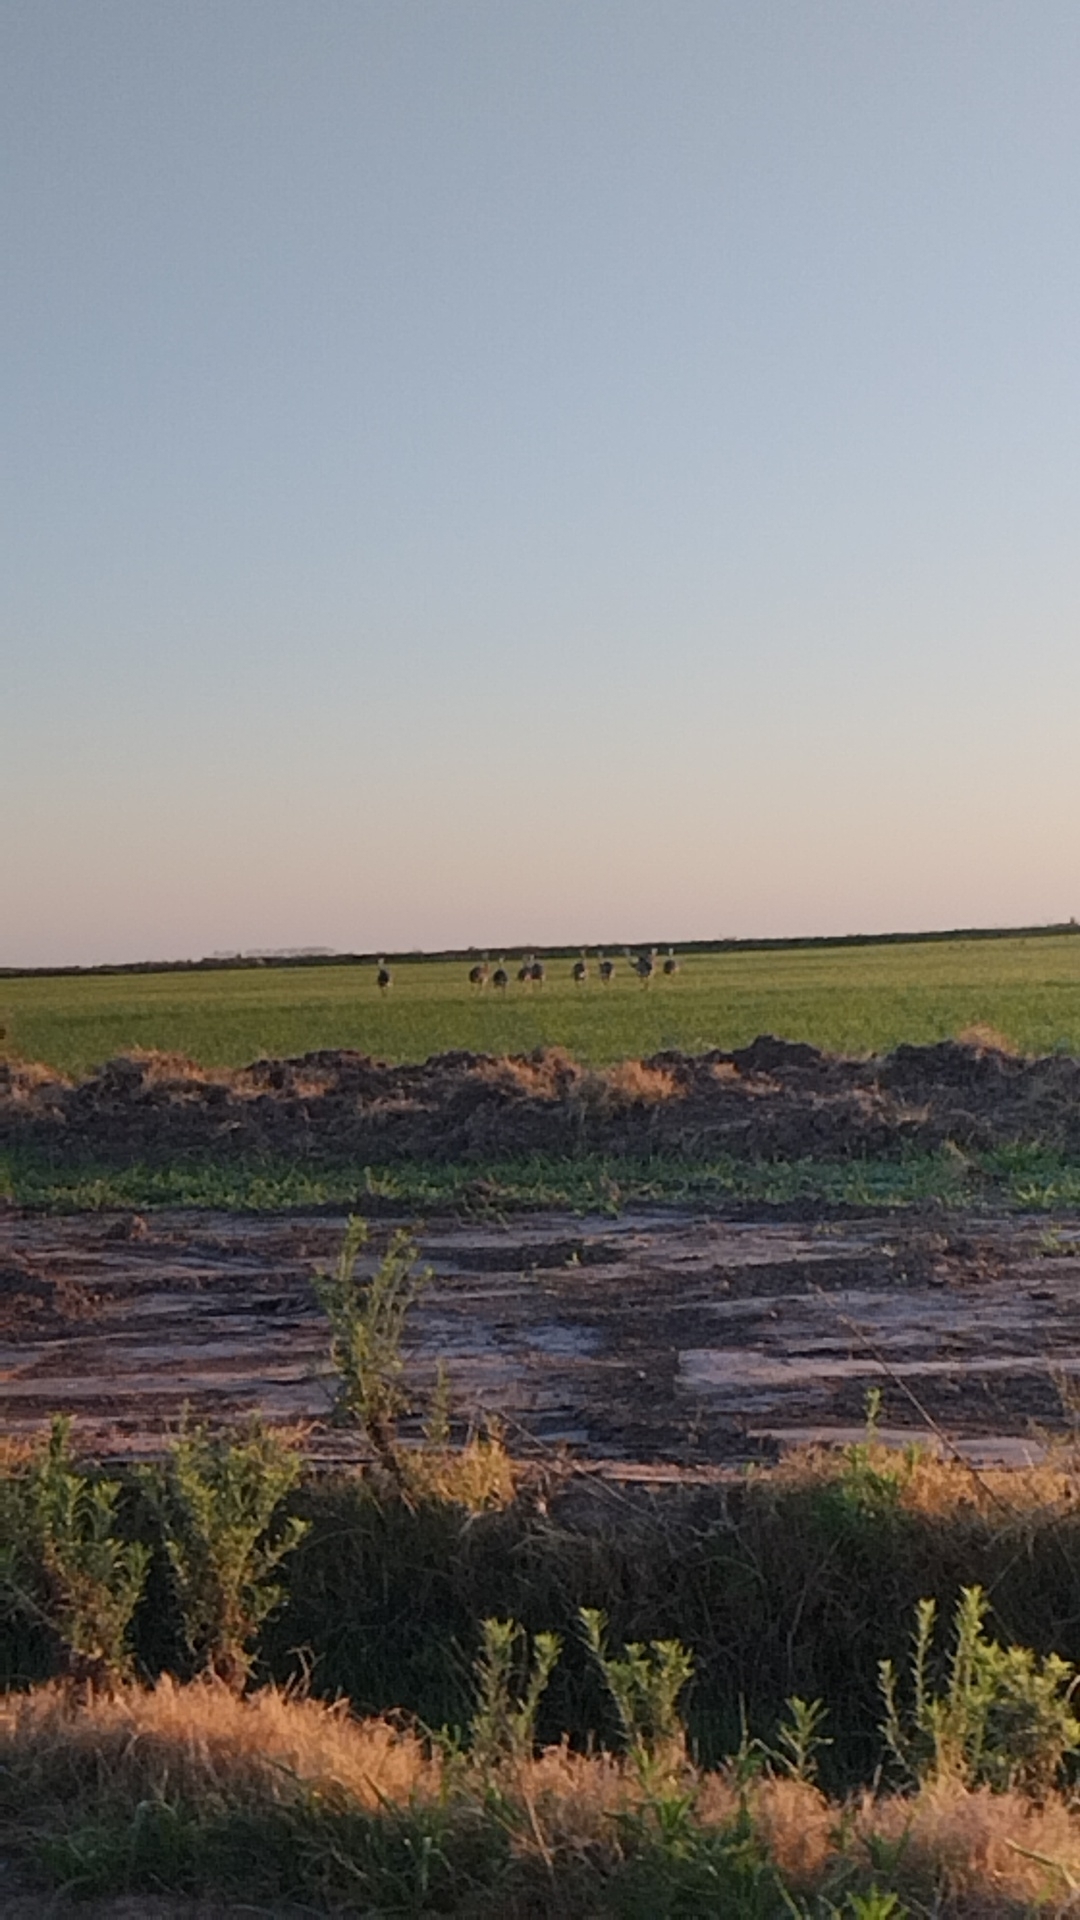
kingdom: Animalia
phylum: Chordata
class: Aves
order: Rheiformes
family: Rheidae
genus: Rhea
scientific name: Rhea americana
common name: Greater rhea
